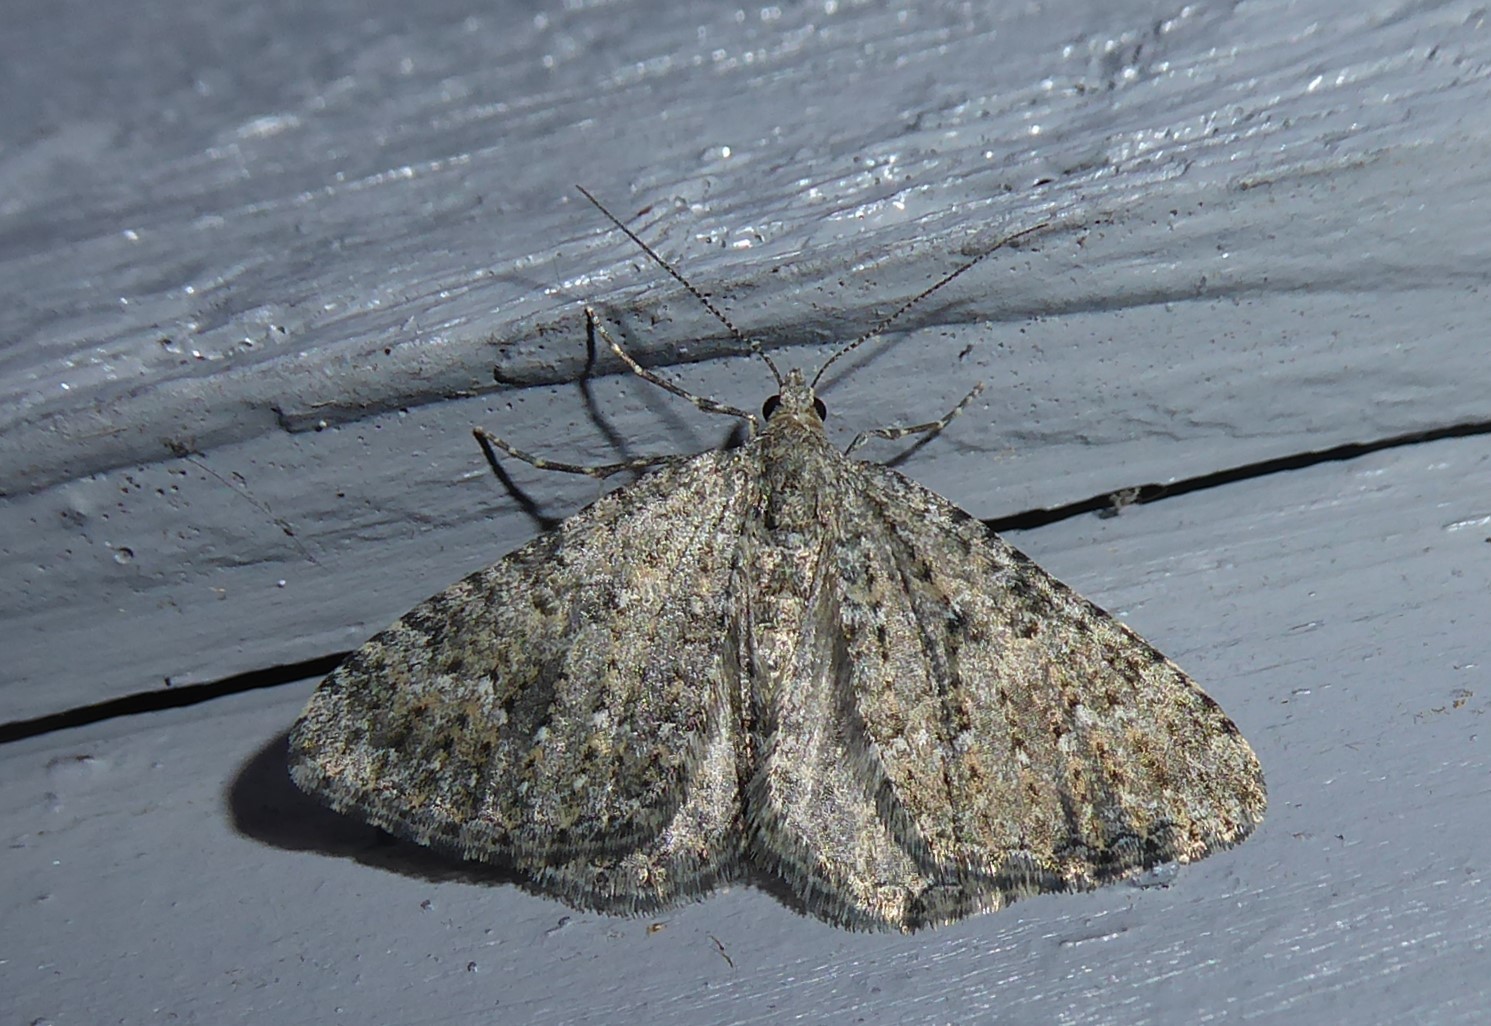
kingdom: Animalia
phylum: Arthropoda
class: Insecta
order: Lepidoptera
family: Geometridae
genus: Helastia
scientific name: Helastia corcularia
